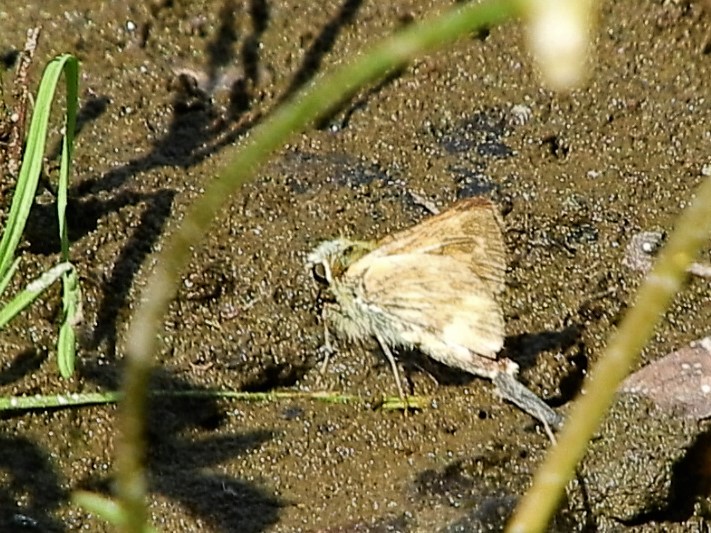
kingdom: Animalia
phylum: Arthropoda
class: Insecta
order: Lepidoptera
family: Hesperiidae
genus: Ochlodes
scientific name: Ochlodes sylvanoides
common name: Woodland skipper
